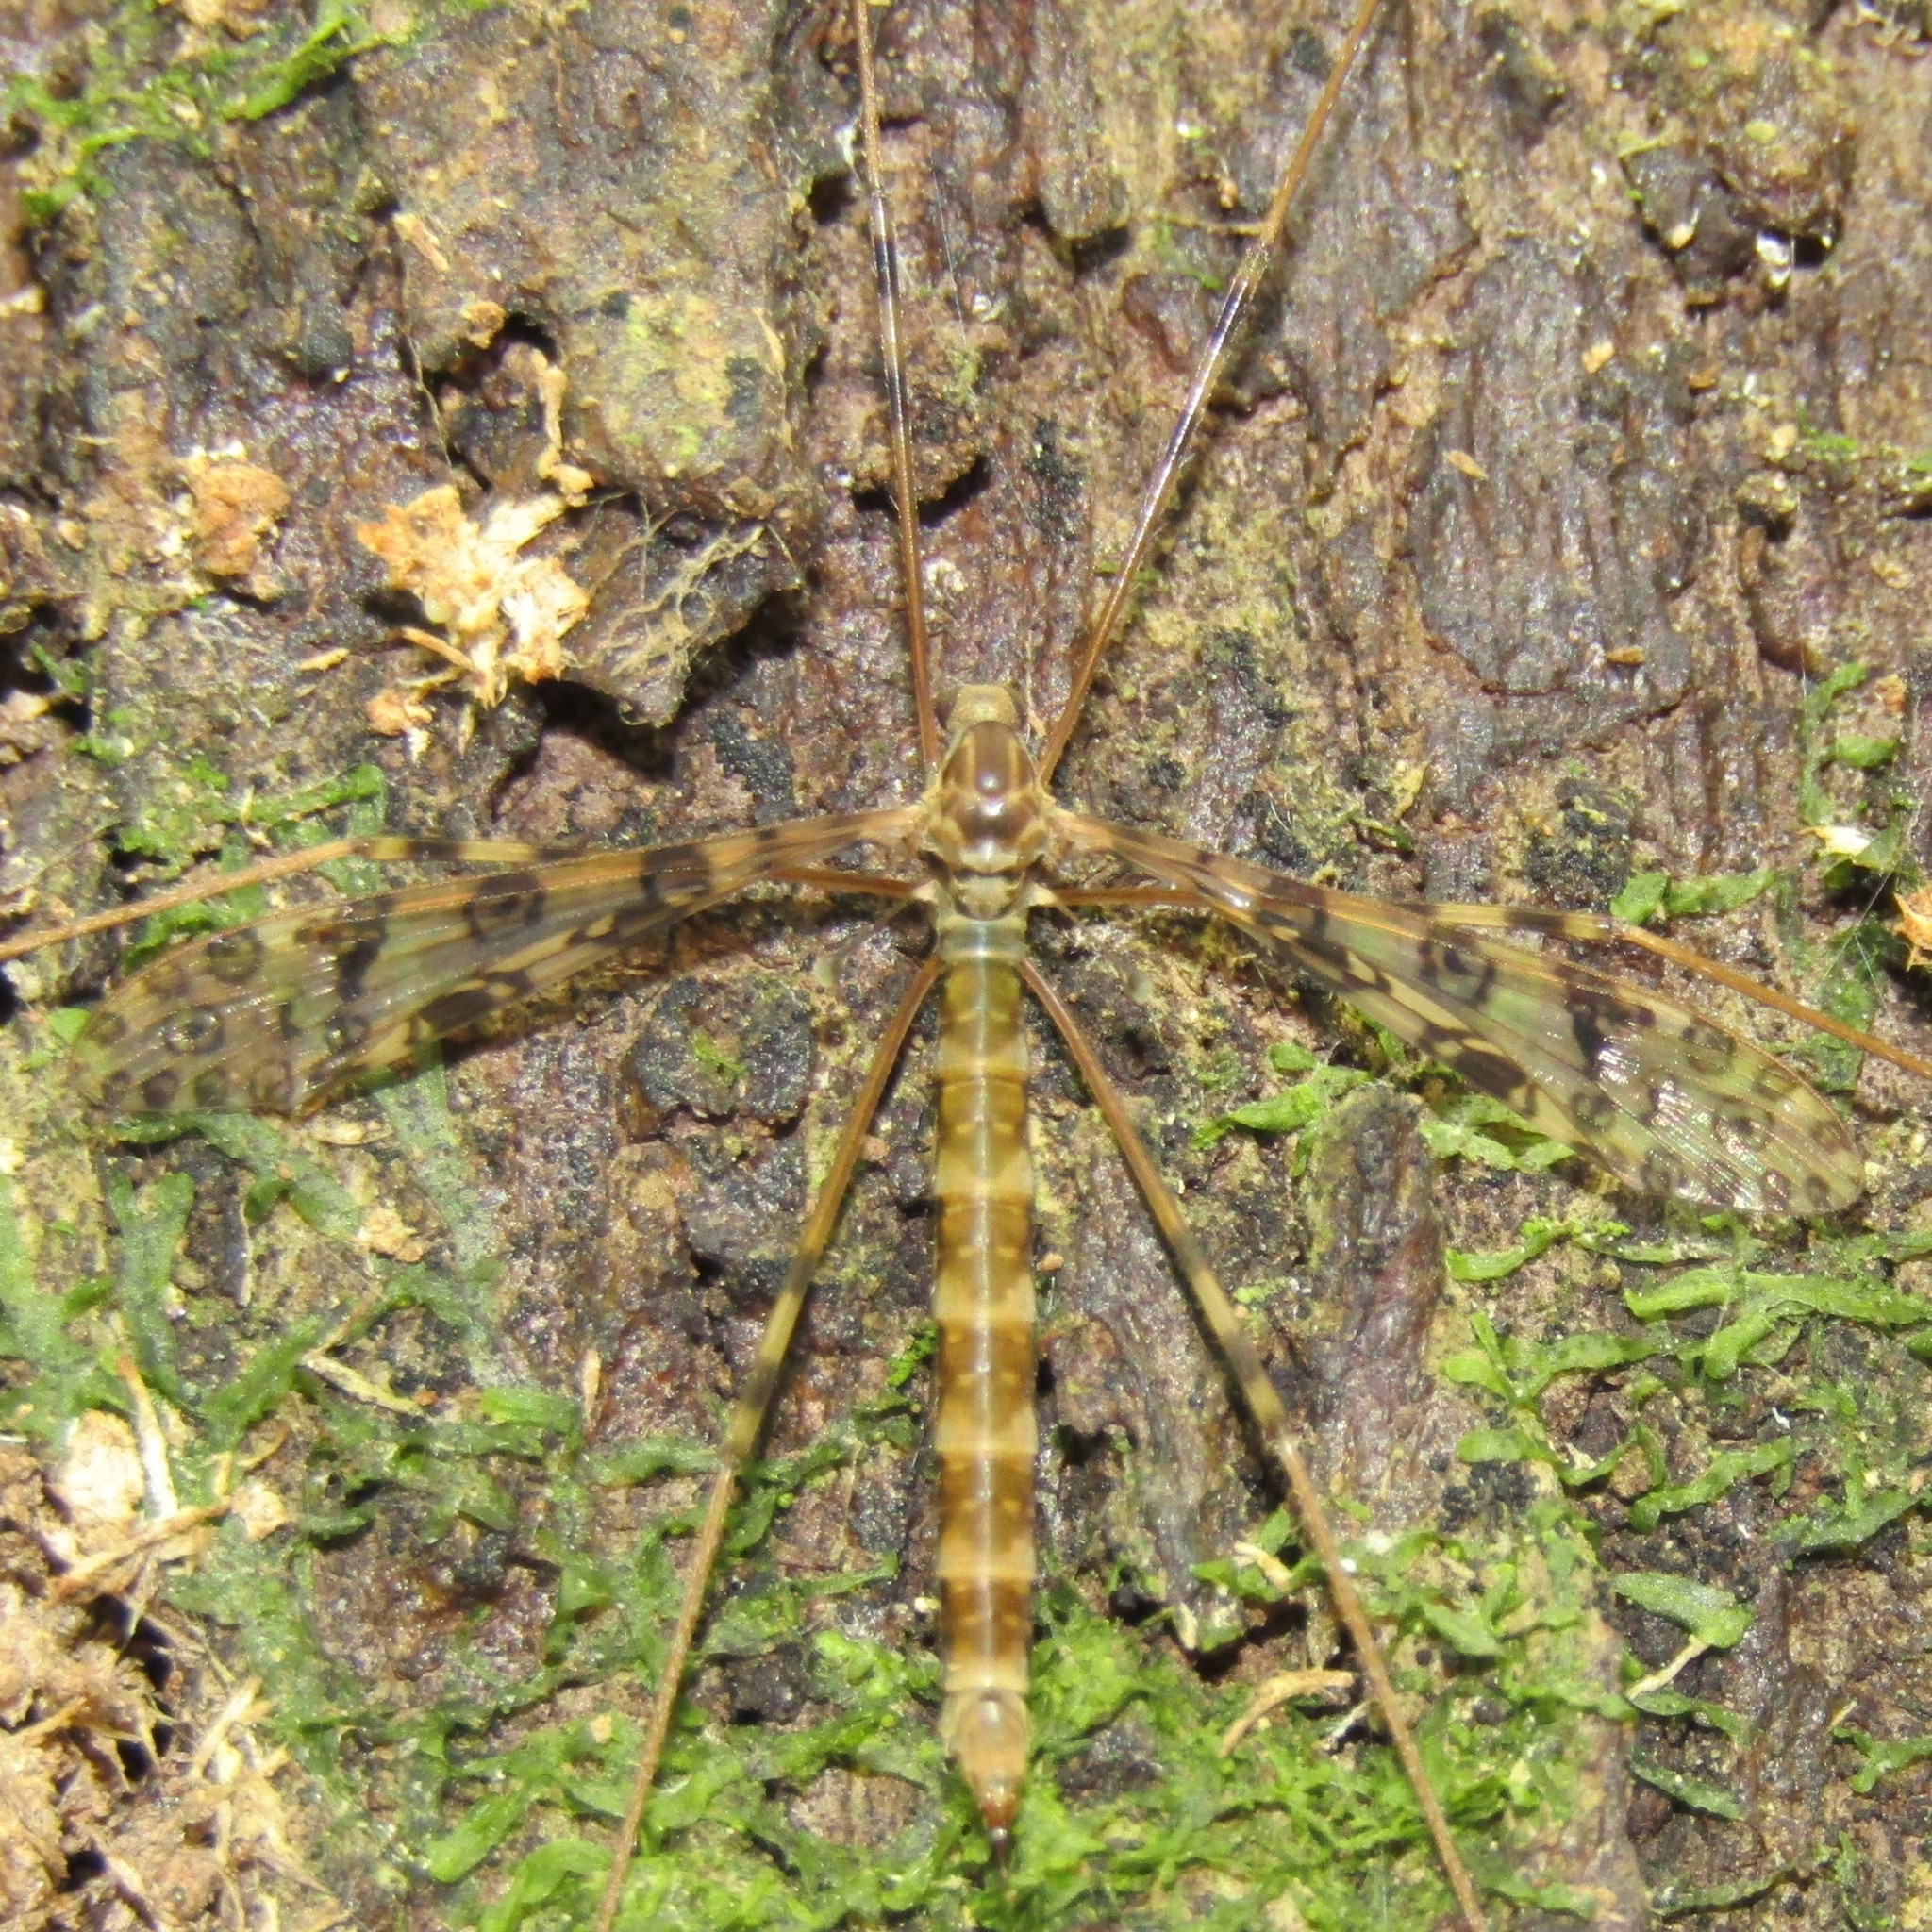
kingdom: Animalia
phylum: Arthropoda
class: Insecta
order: Diptera
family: Limoniidae
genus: Austrolimnophila
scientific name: Austrolimnophila argus
